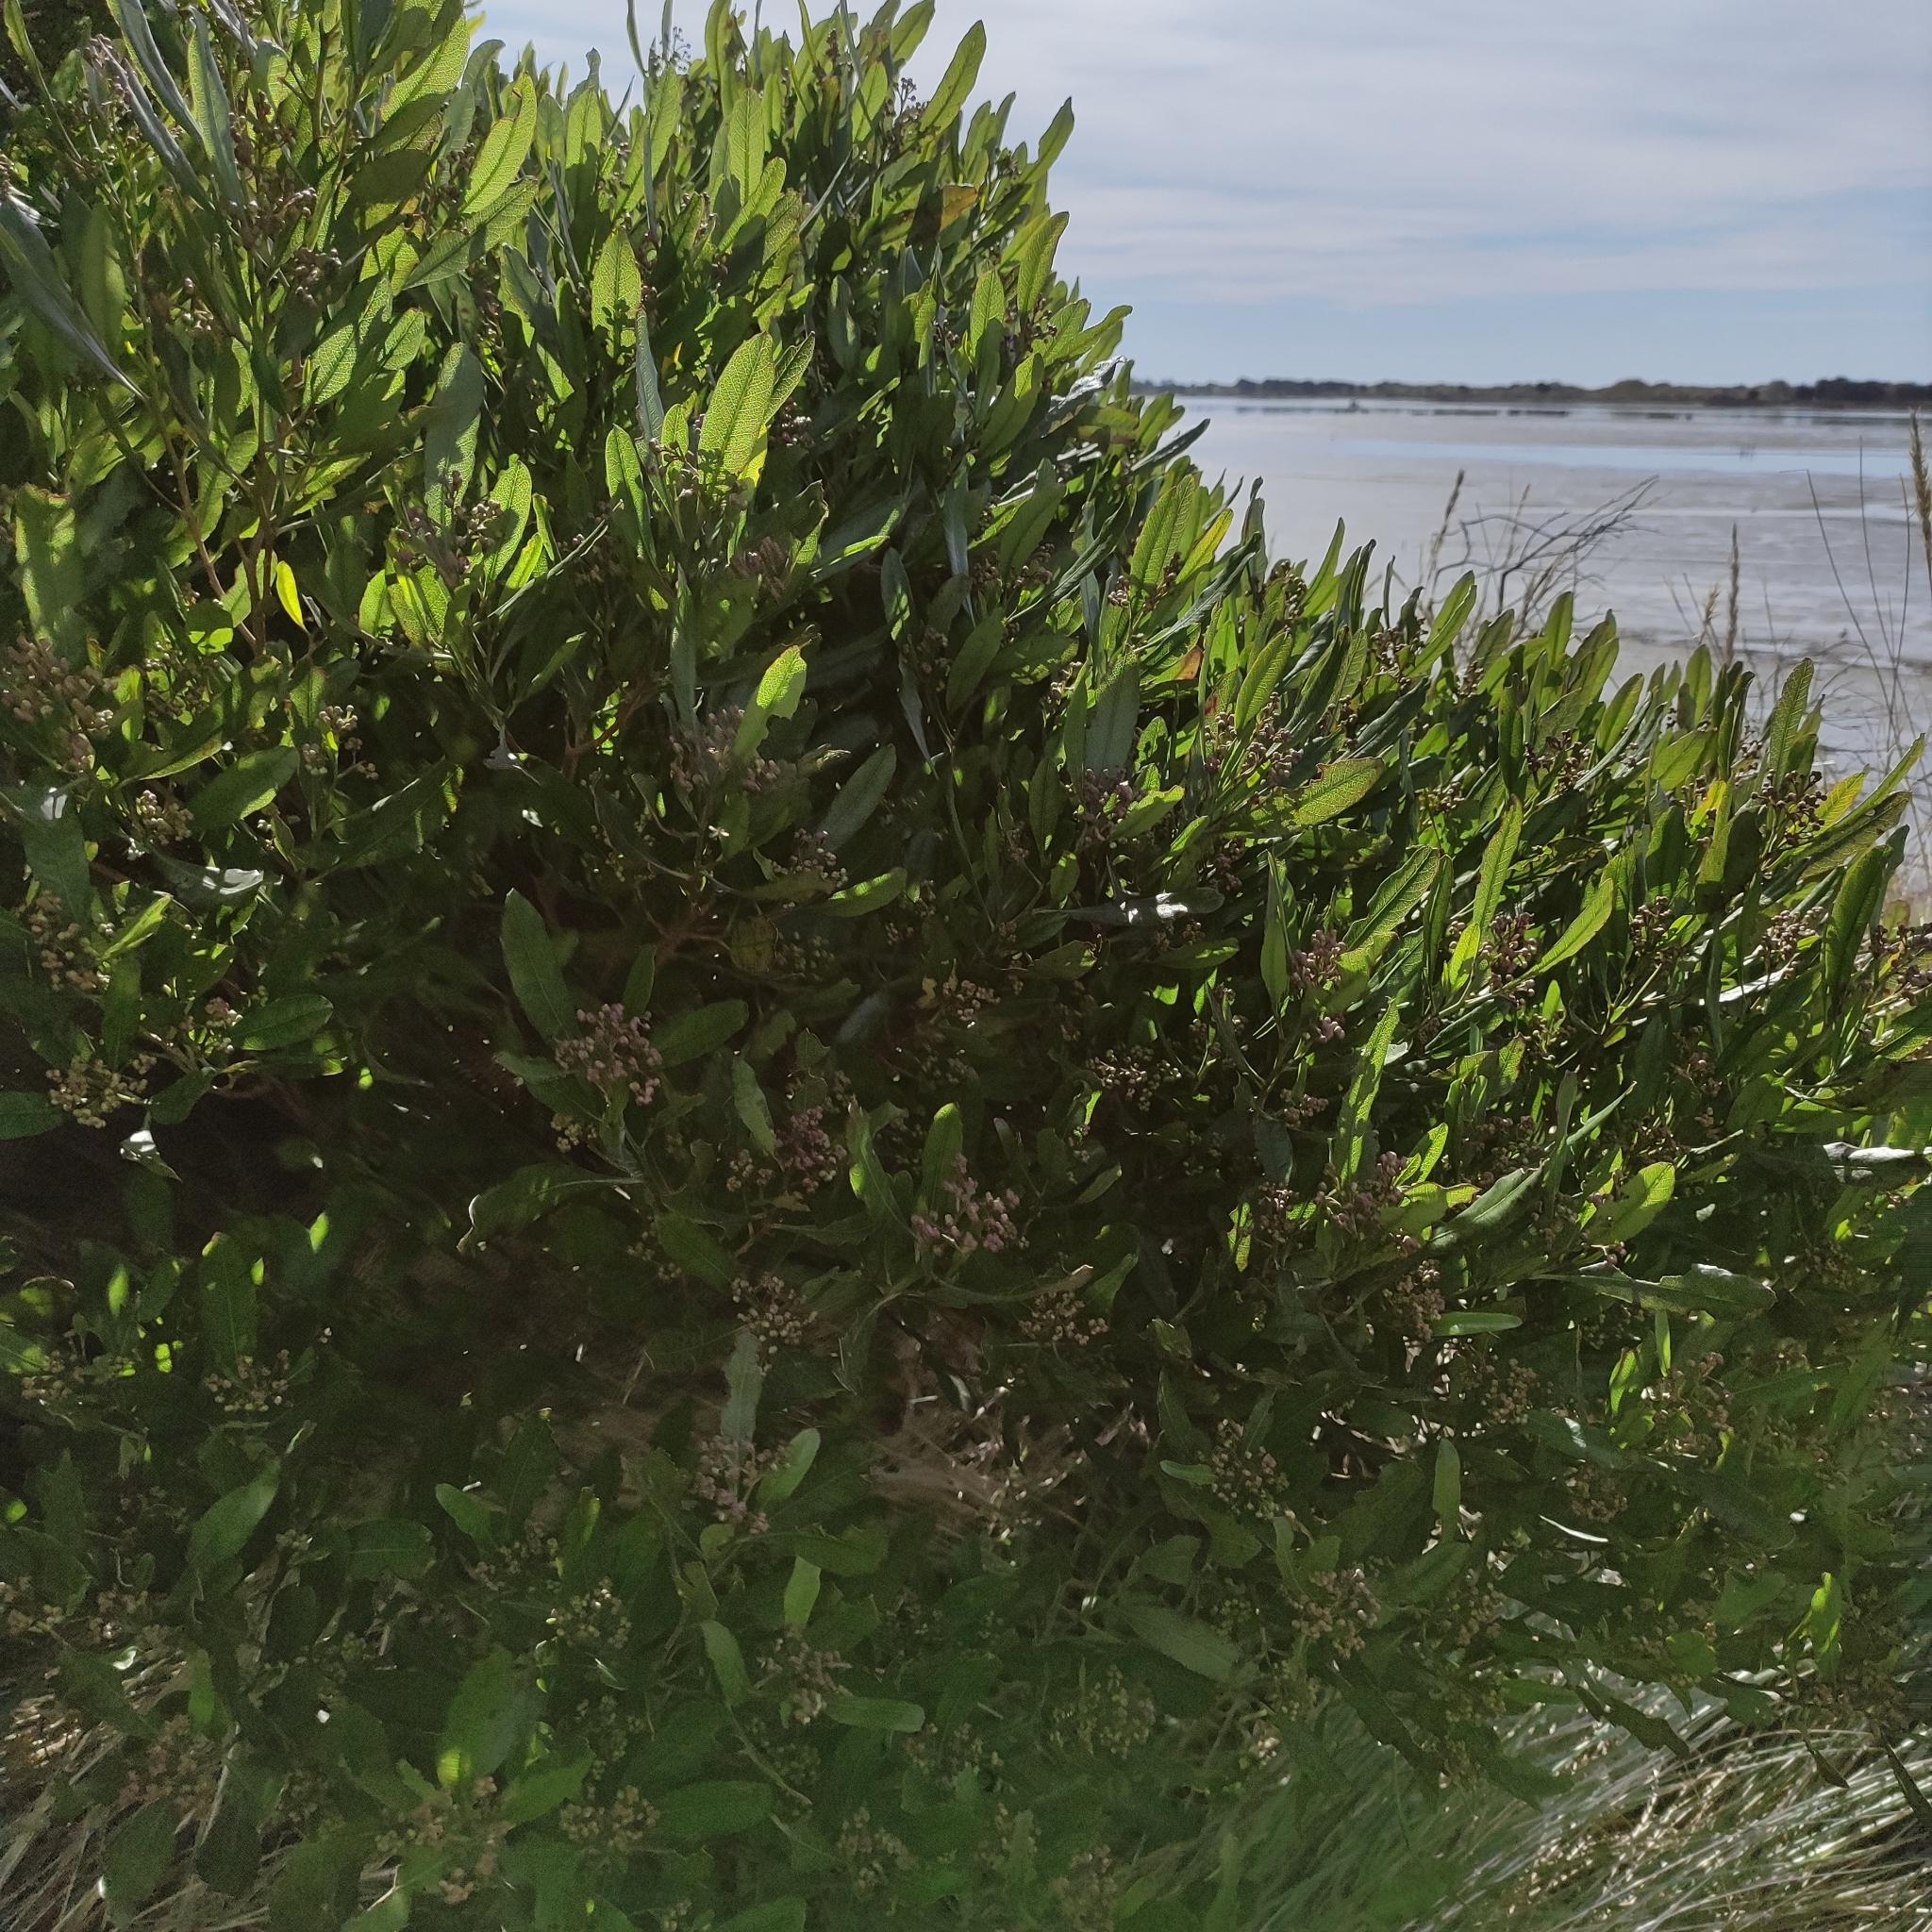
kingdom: Plantae
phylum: Tracheophyta
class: Magnoliopsida
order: Sapindales
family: Sapindaceae
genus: Dodonaea
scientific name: Dodonaea viscosa
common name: Hopbush
